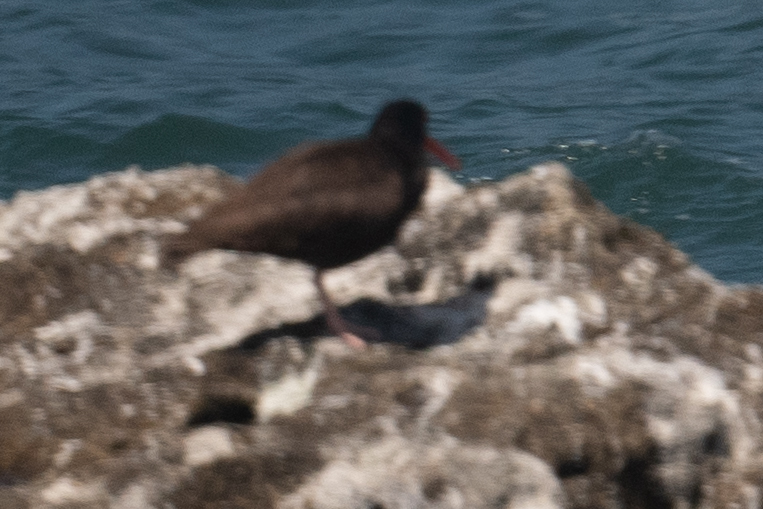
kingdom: Animalia
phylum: Chordata
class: Aves
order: Charadriiformes
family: Haematopodidae
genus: Haematopus
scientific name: Haematopus bachmani
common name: Black oystercatcher
